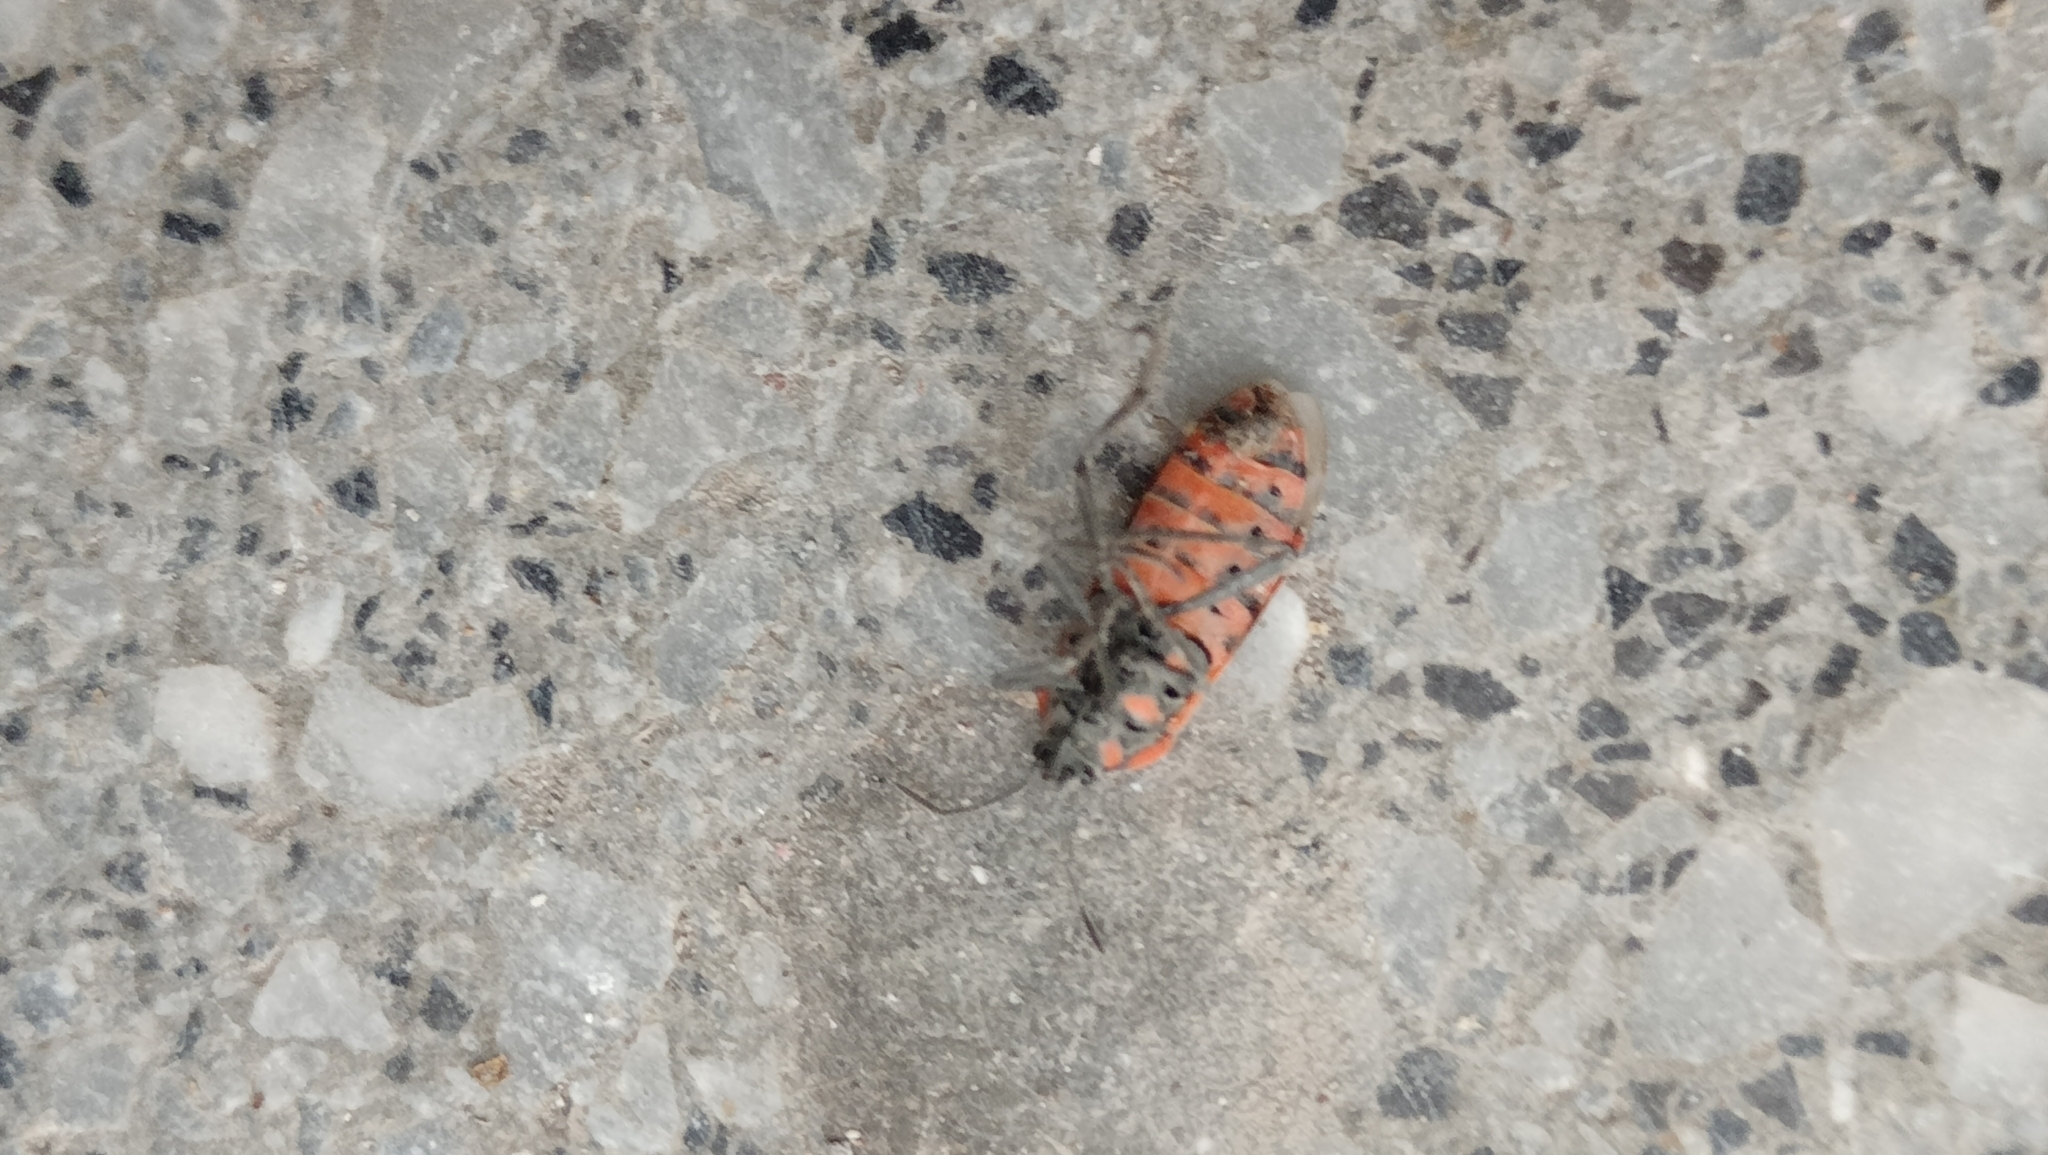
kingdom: Animalia
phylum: Arthropoda
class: Insecta
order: Hemiptera
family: Lygaeidae
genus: Spilostethus
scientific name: Spilostethus pandurus
